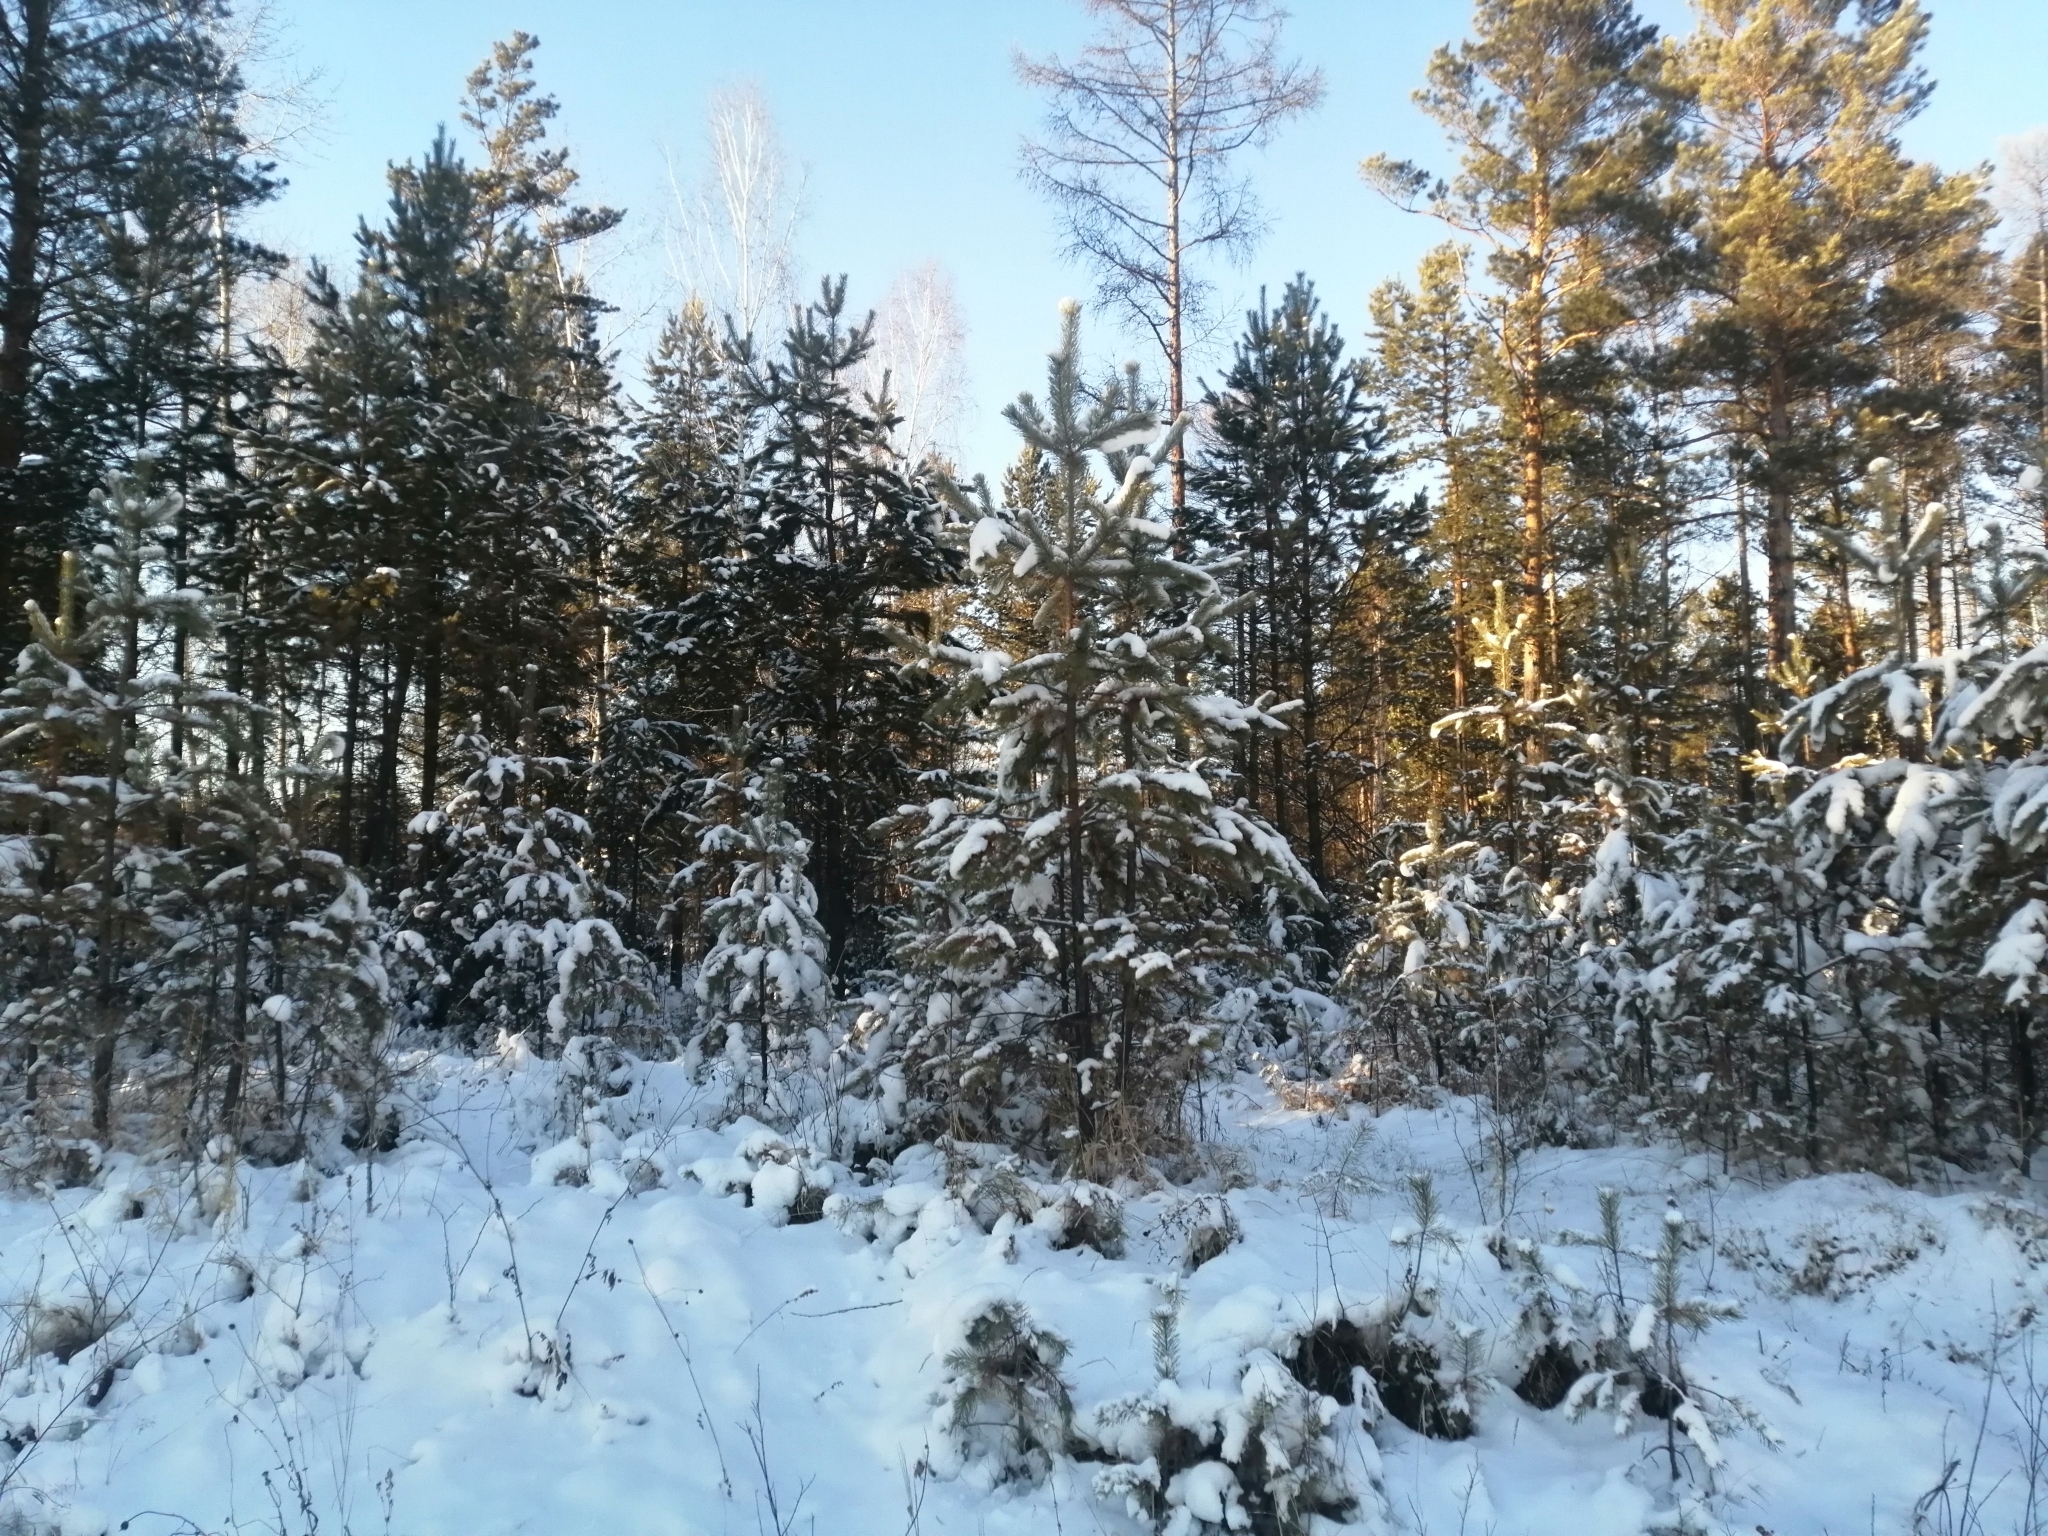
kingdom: Plantae
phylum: Tracheophyta
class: Pinopsida
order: Pinales
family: Pinaceae
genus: Pinus
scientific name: Pinus sylvestris
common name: Scots pine
